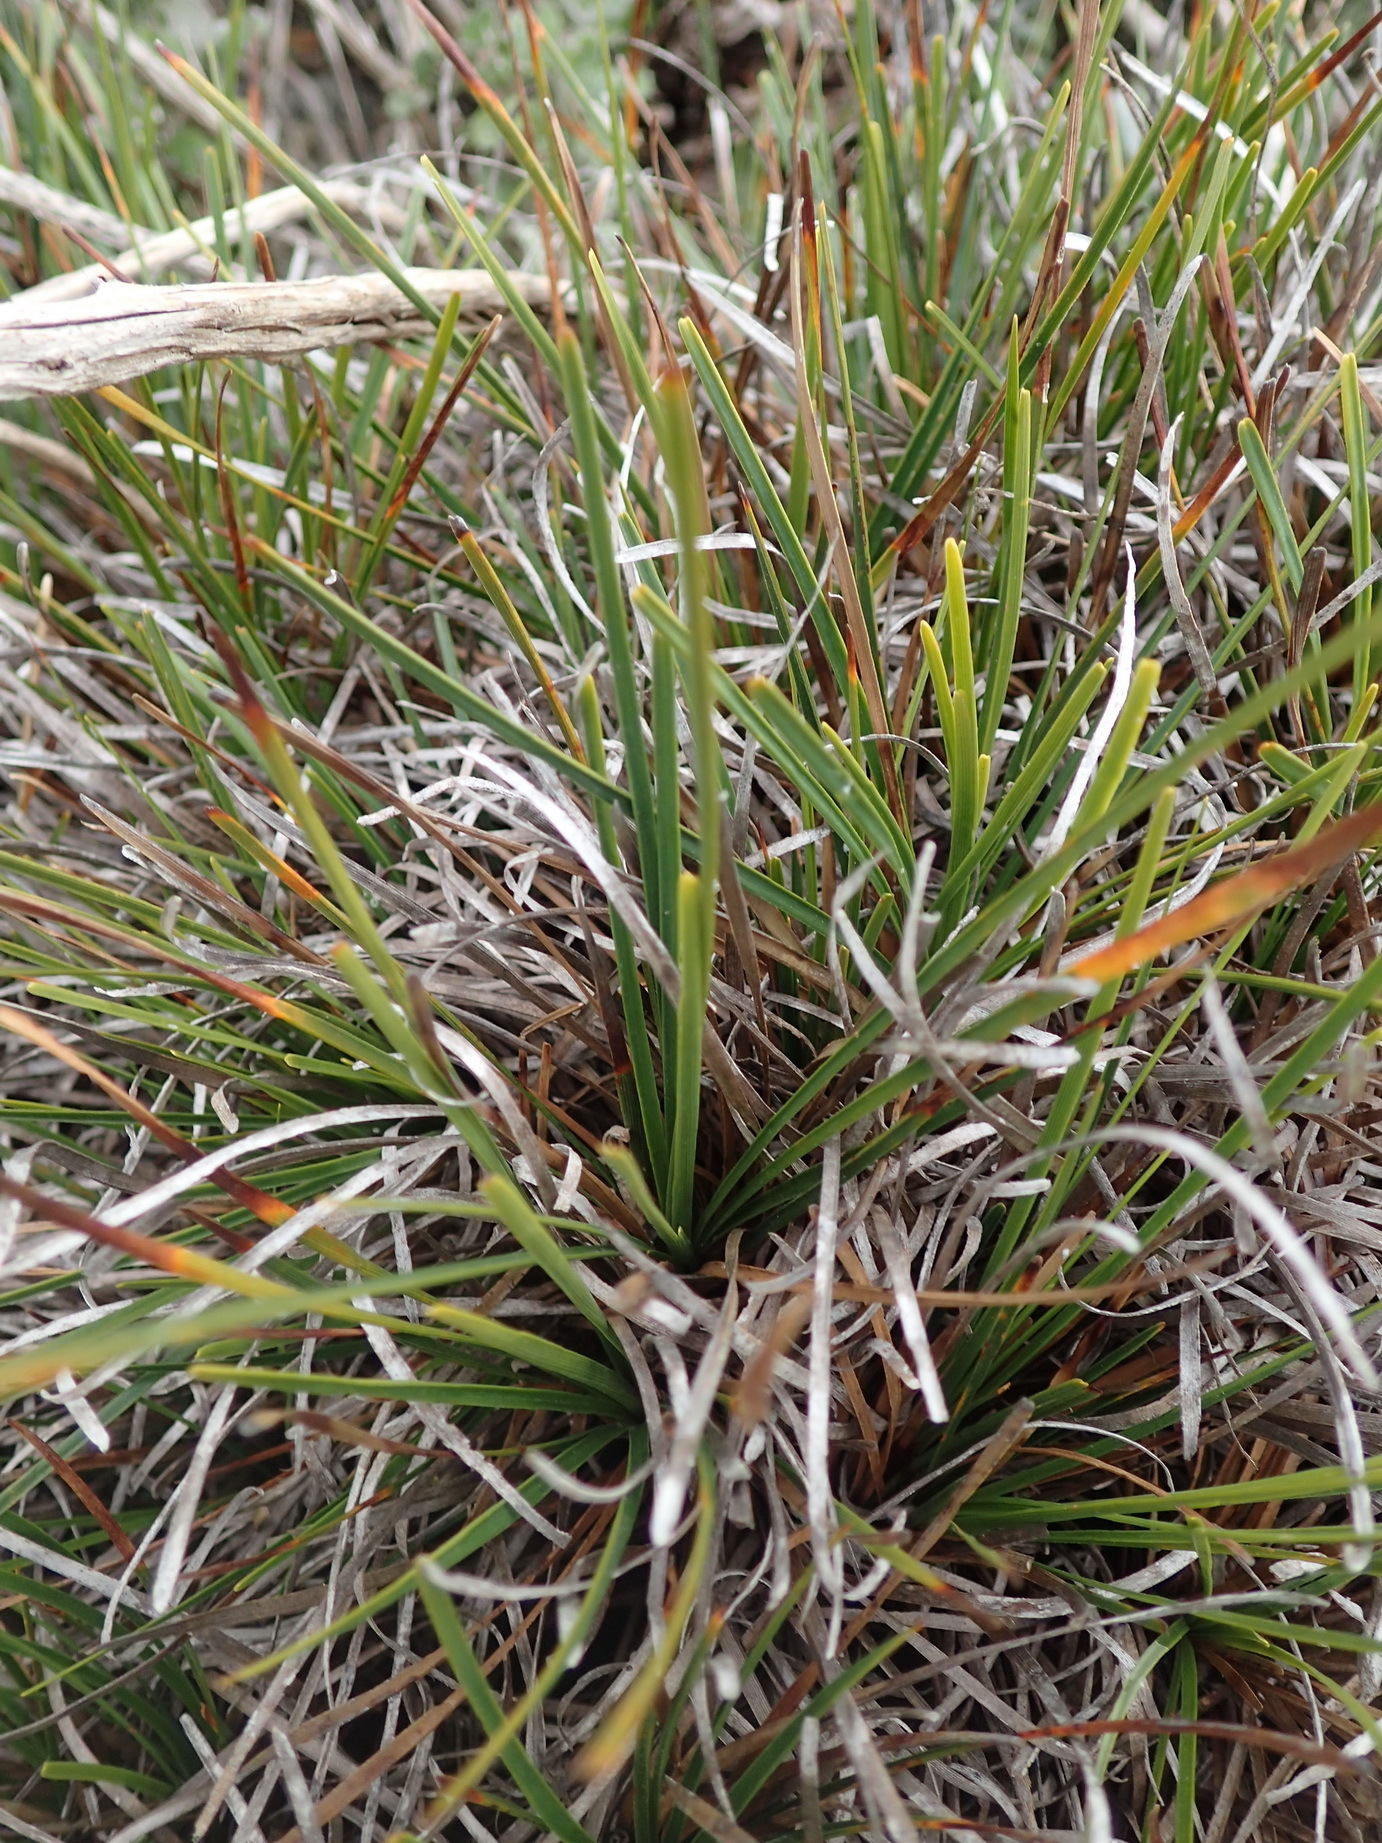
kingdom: Plantae
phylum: Tracheophyta
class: Liliopsida
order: Poales
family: Cyperaceae
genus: Ficinia
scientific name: Ficinia praemorsa
